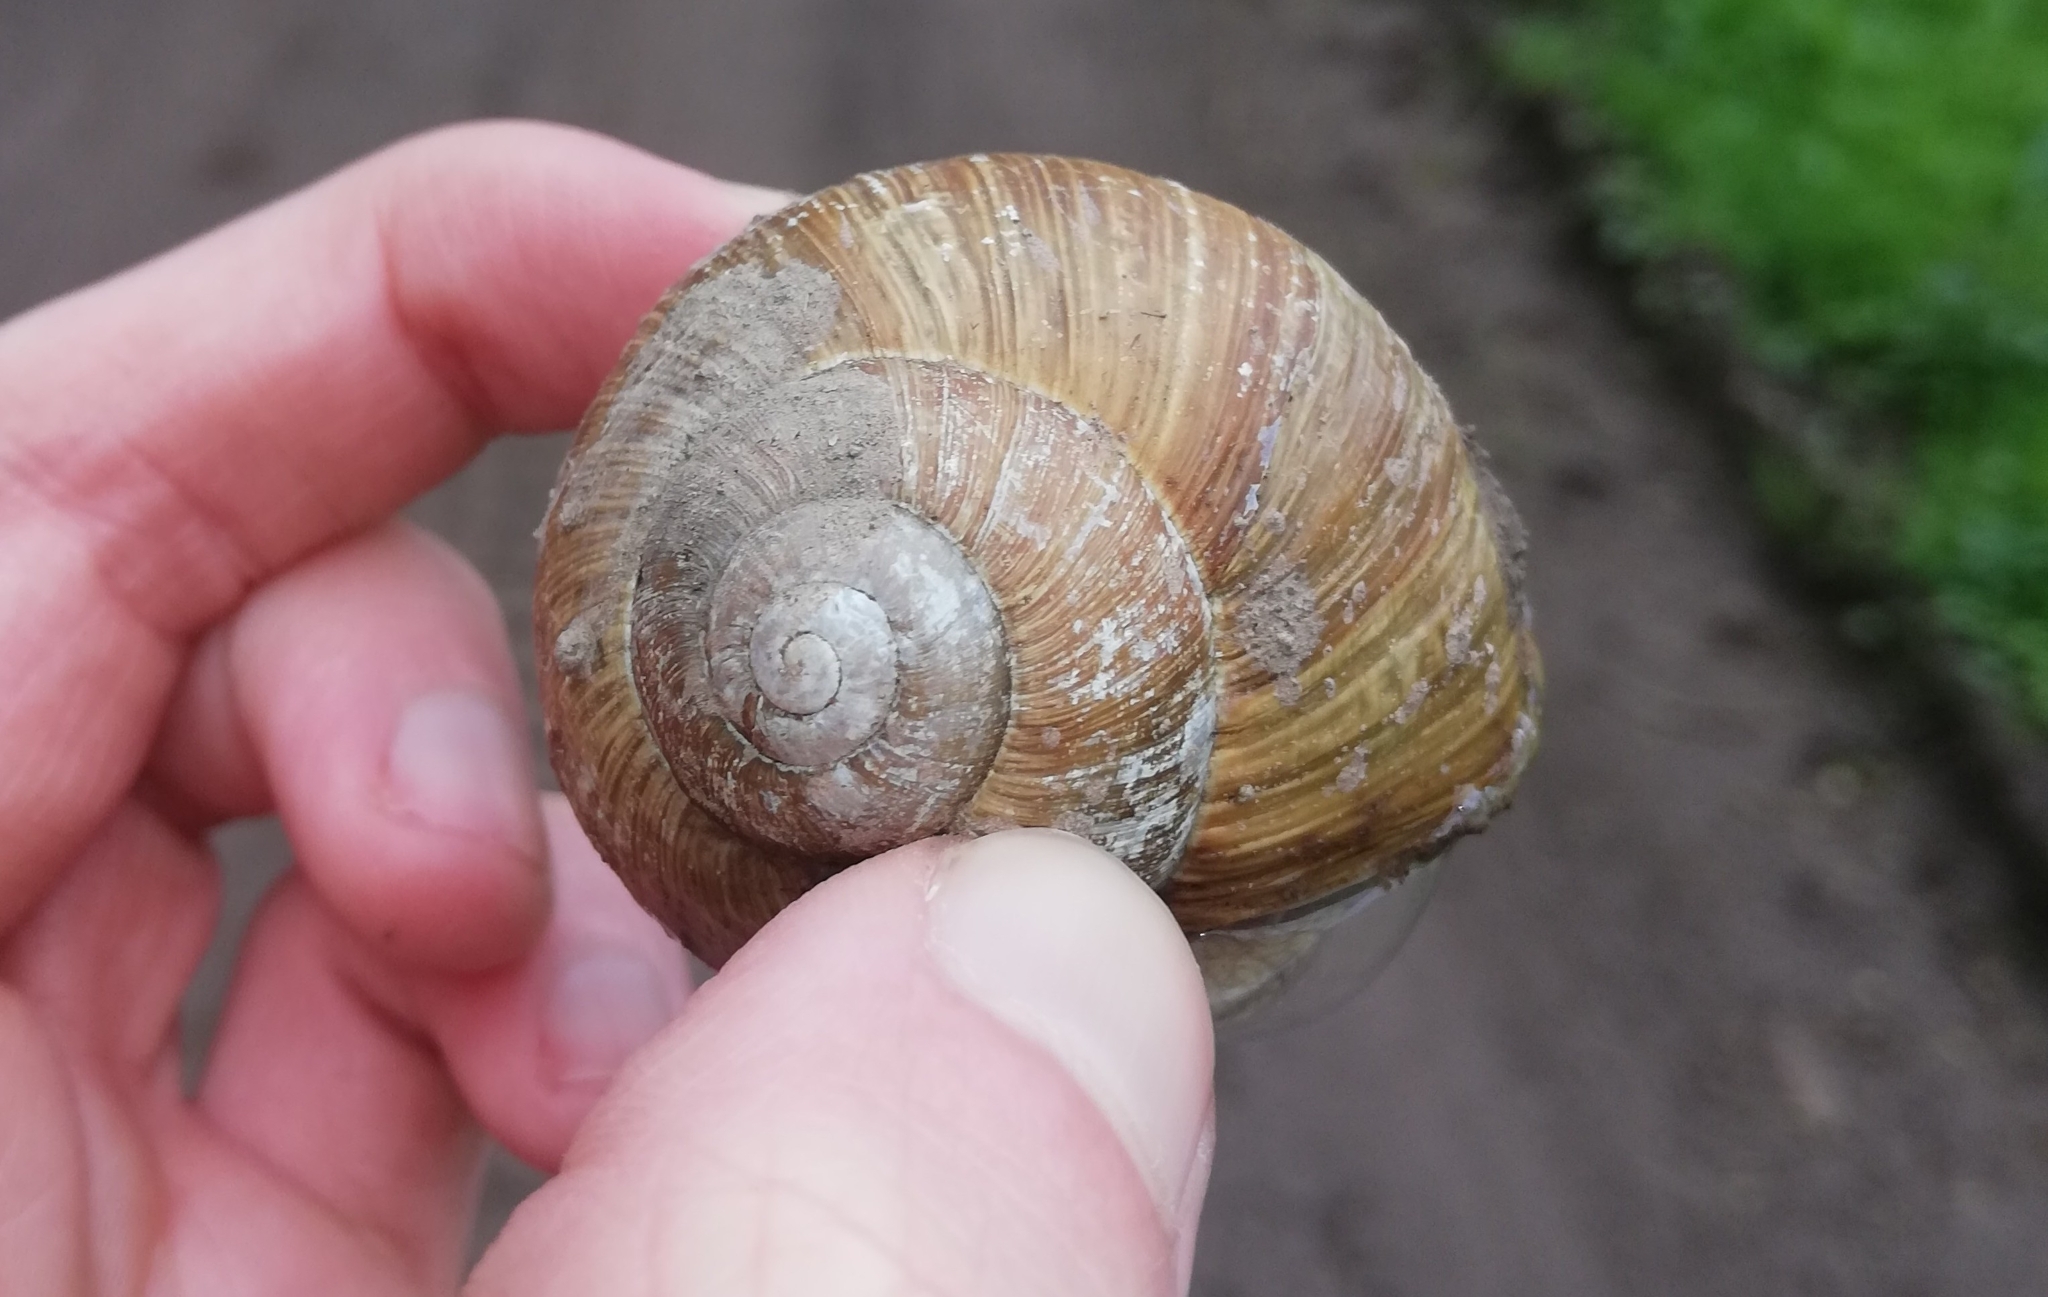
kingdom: Animalia
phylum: Mollusca
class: Gastropoda
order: Stylommatophora
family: Helicidae
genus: Helix
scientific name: Helix pomatia
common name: Roman snail
